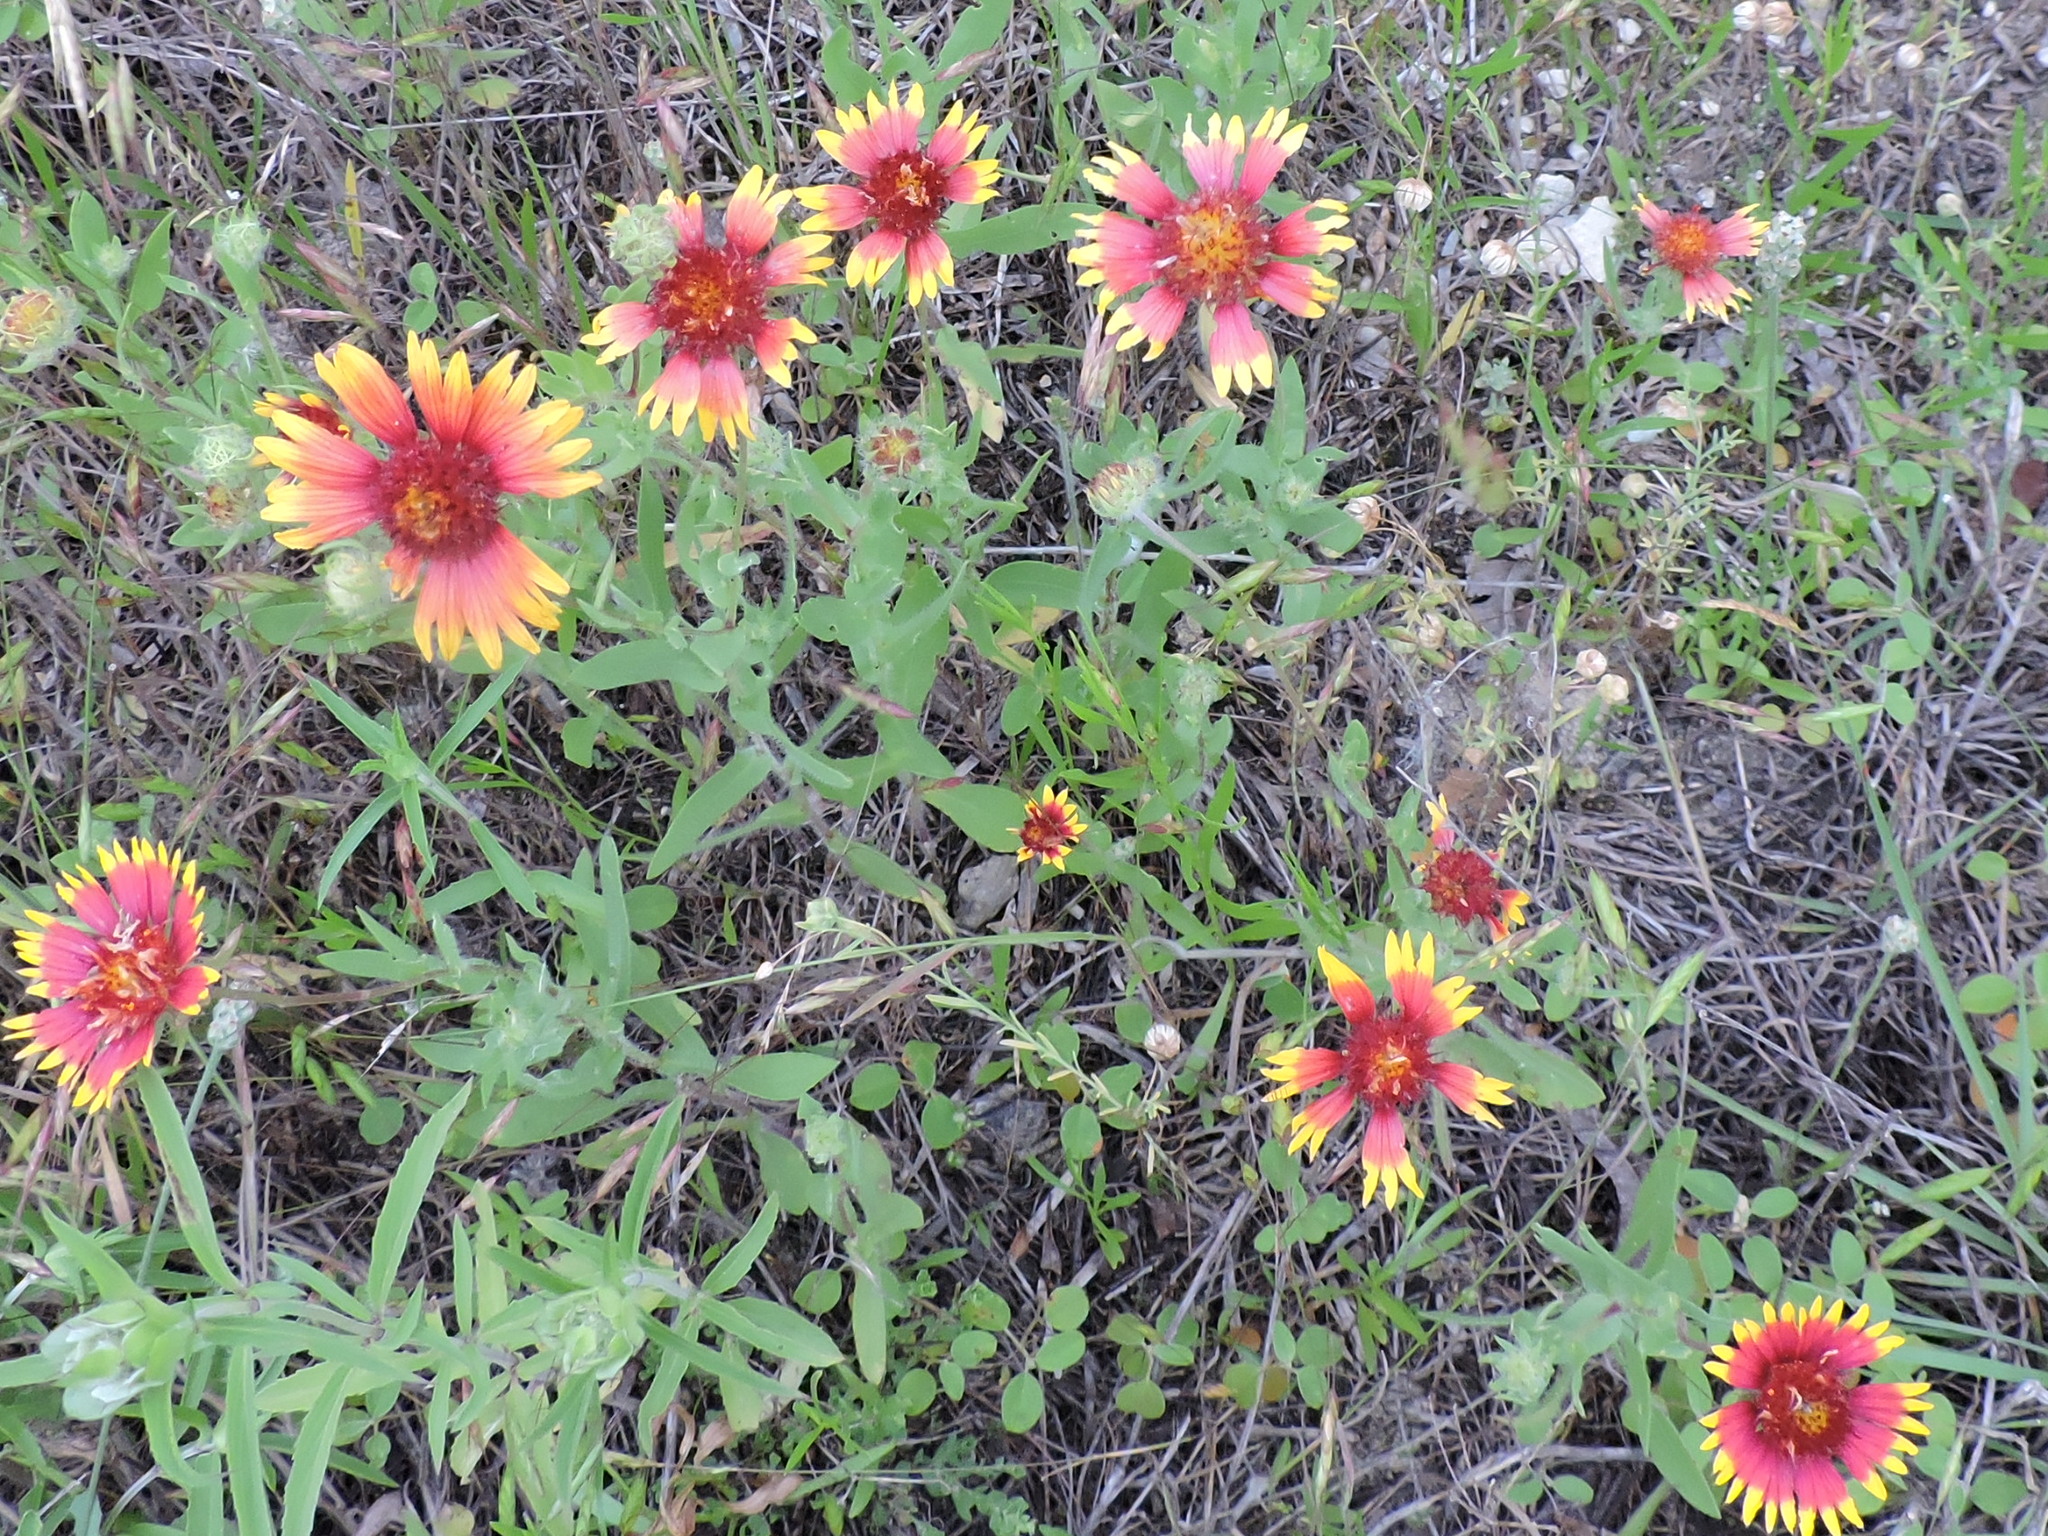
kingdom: Plantae
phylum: Tracheophyta
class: Magnoliopsida
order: Asterales
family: Asteraceae
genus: Gaillardia
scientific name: Gaillardia pulchella
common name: Firewheel
